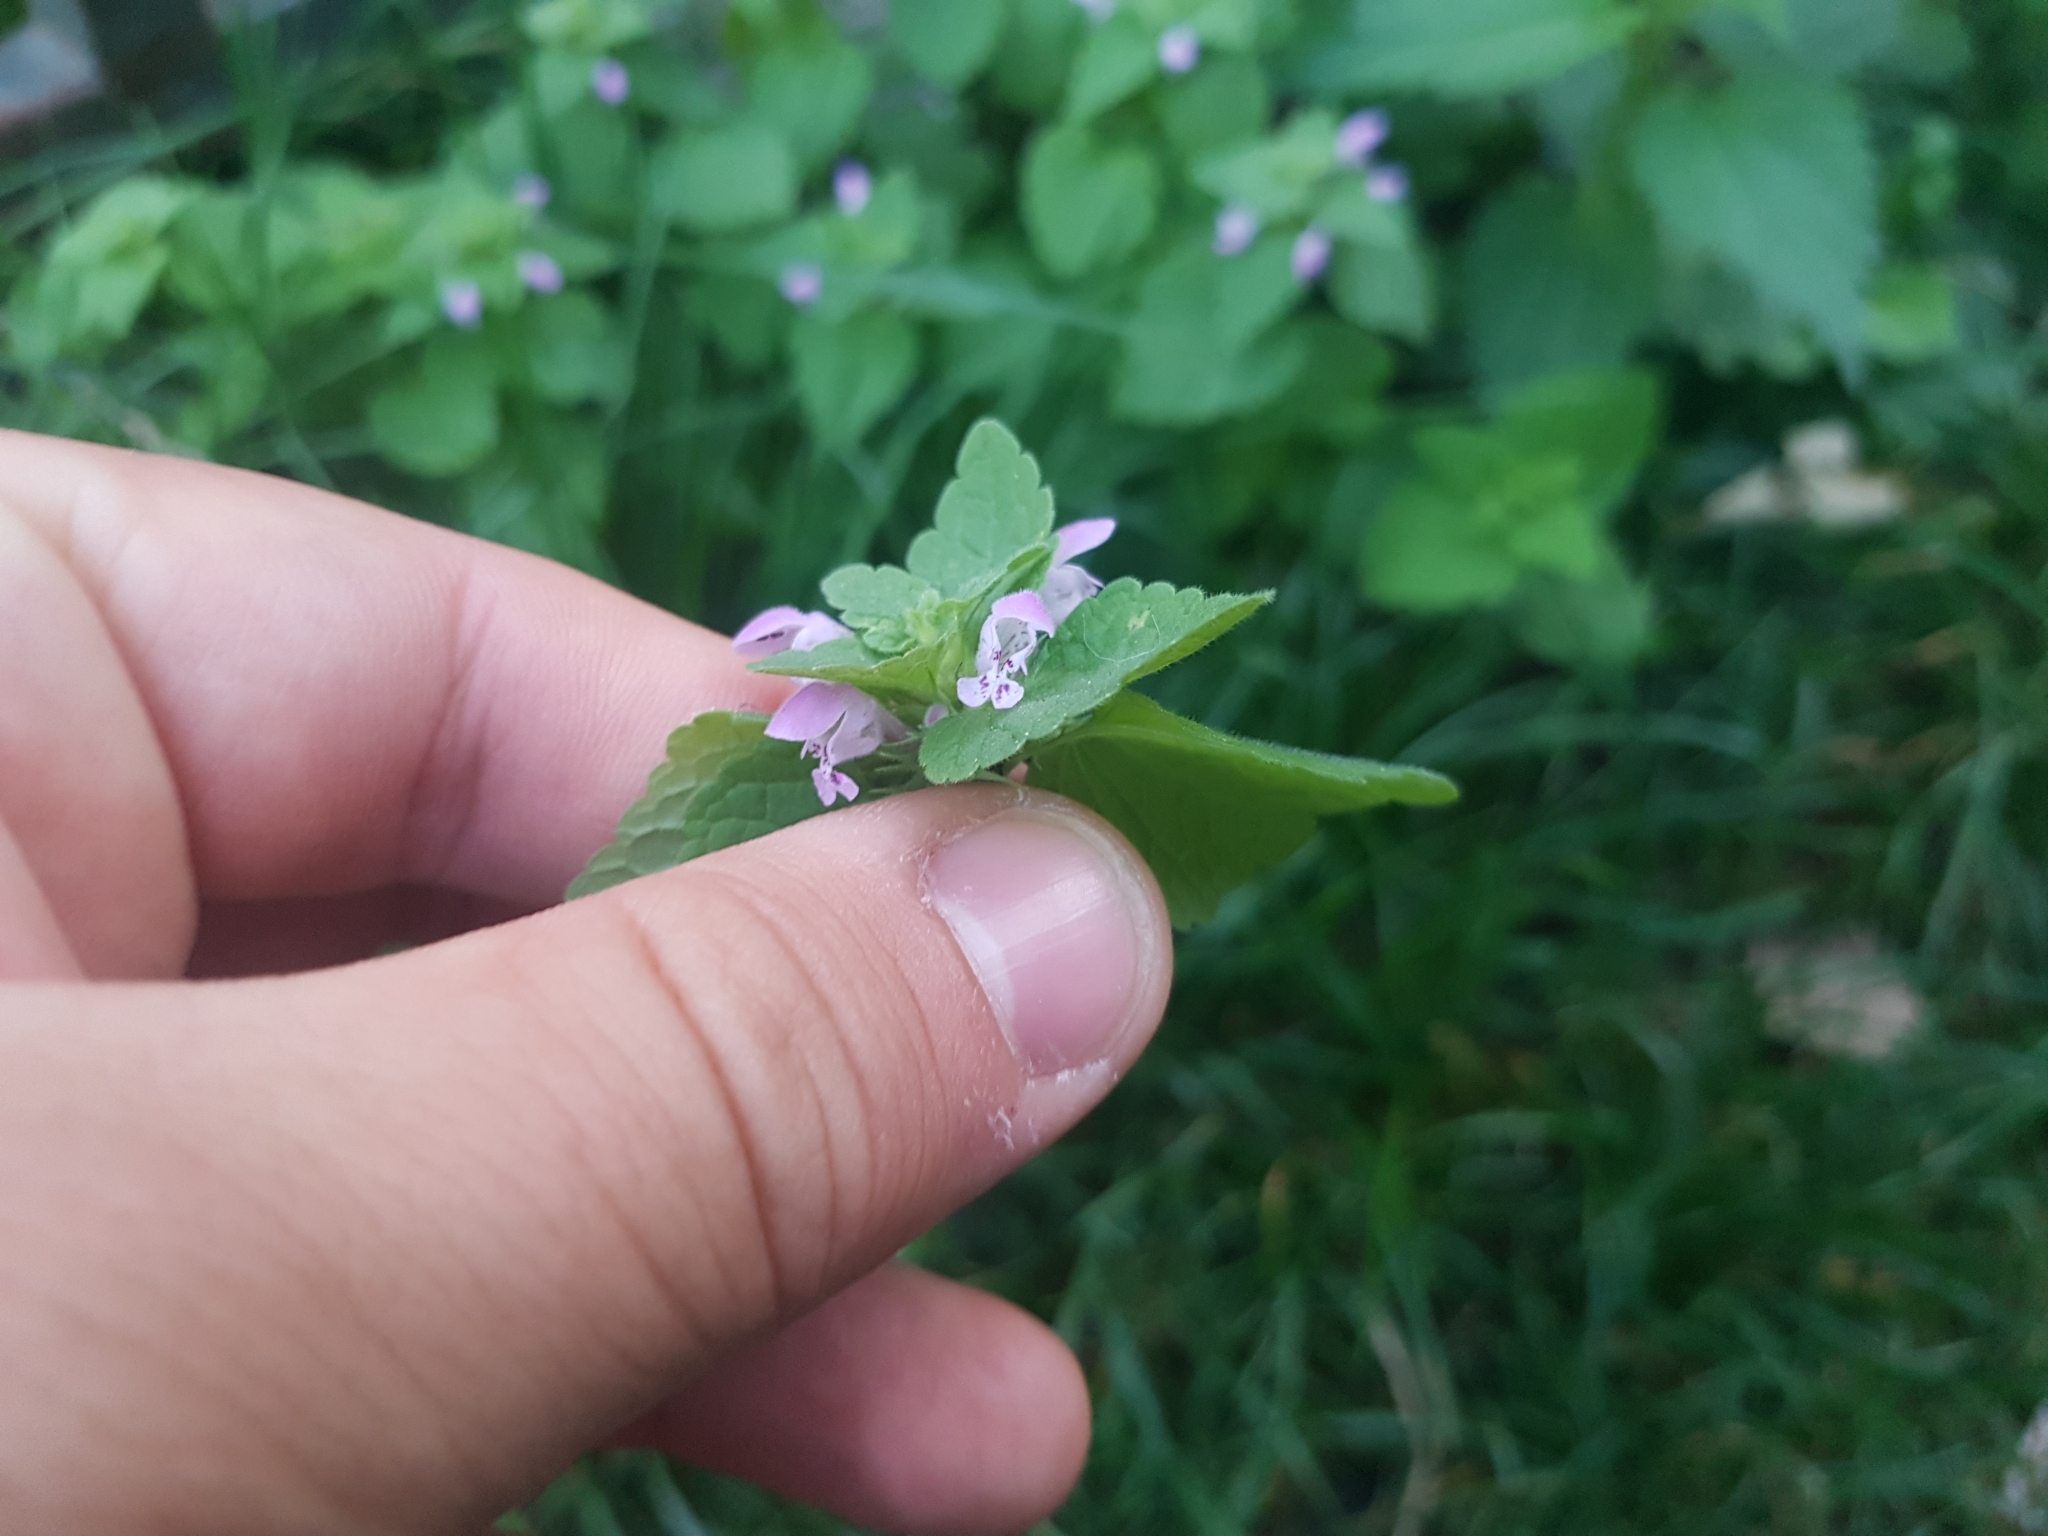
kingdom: Plantae
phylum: Tracheophyta
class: Magnoliopsida
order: Lamiales
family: Lamiaceae
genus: Lamium
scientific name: Lamium purpureum
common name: Red dead-nettle
